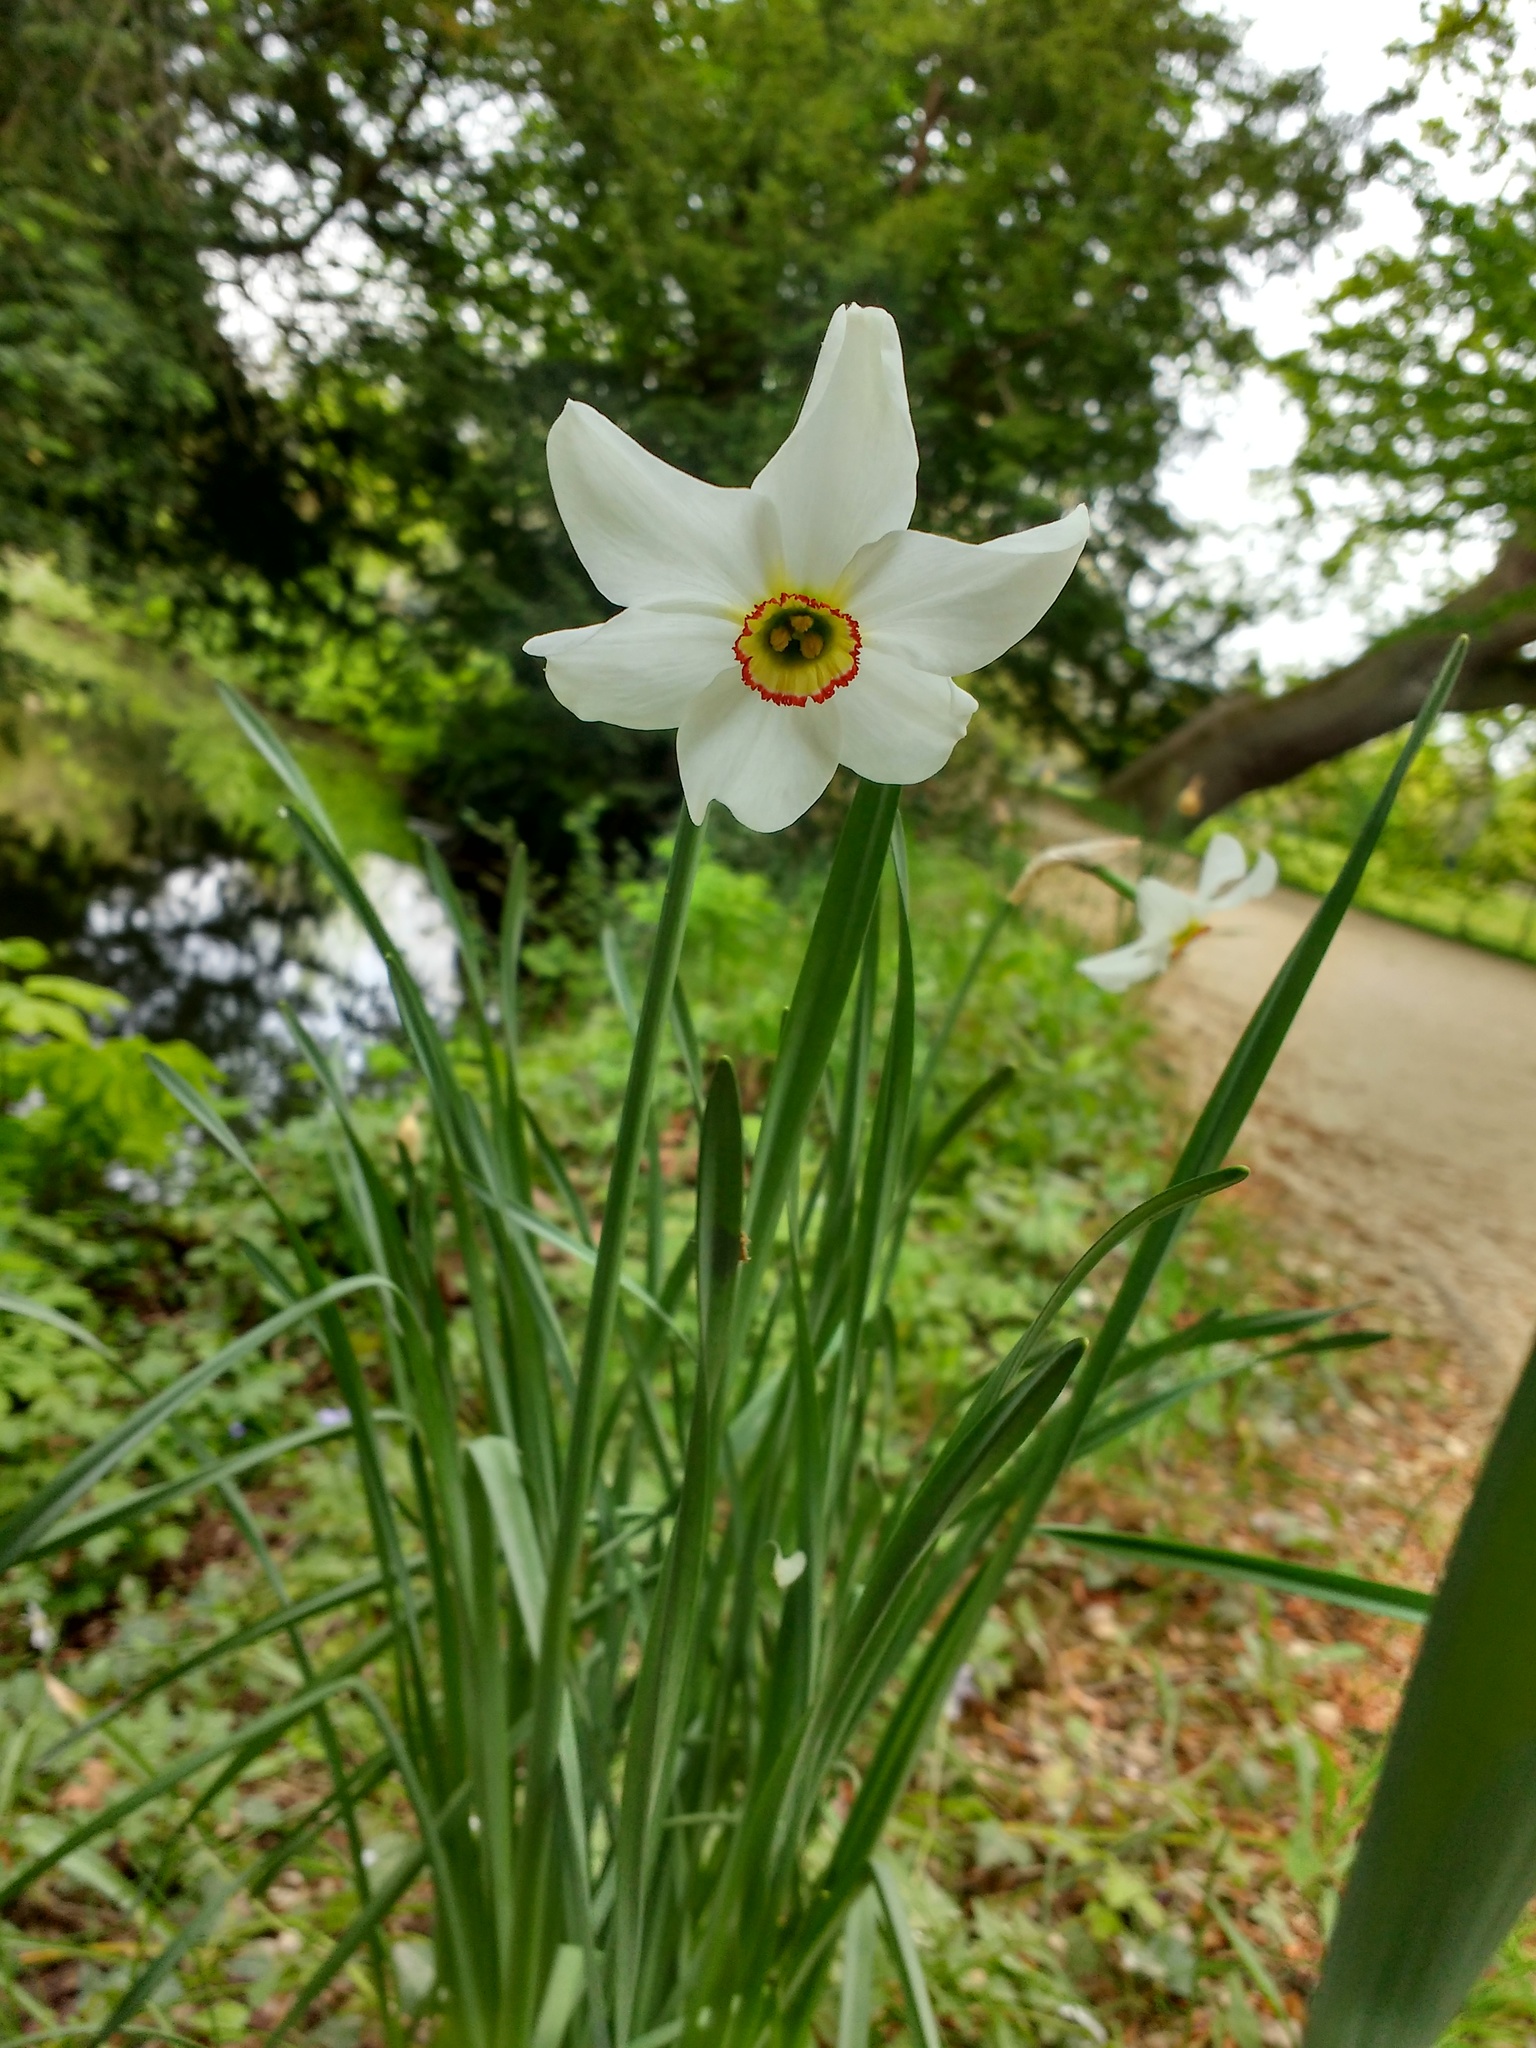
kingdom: Plantae
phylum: Tracheophyta
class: Liliopsida
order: Asparagales
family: Amaryllidaceae
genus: Narcissus
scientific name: Narcissus poeticus
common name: Pheasant's-eye daffodil
